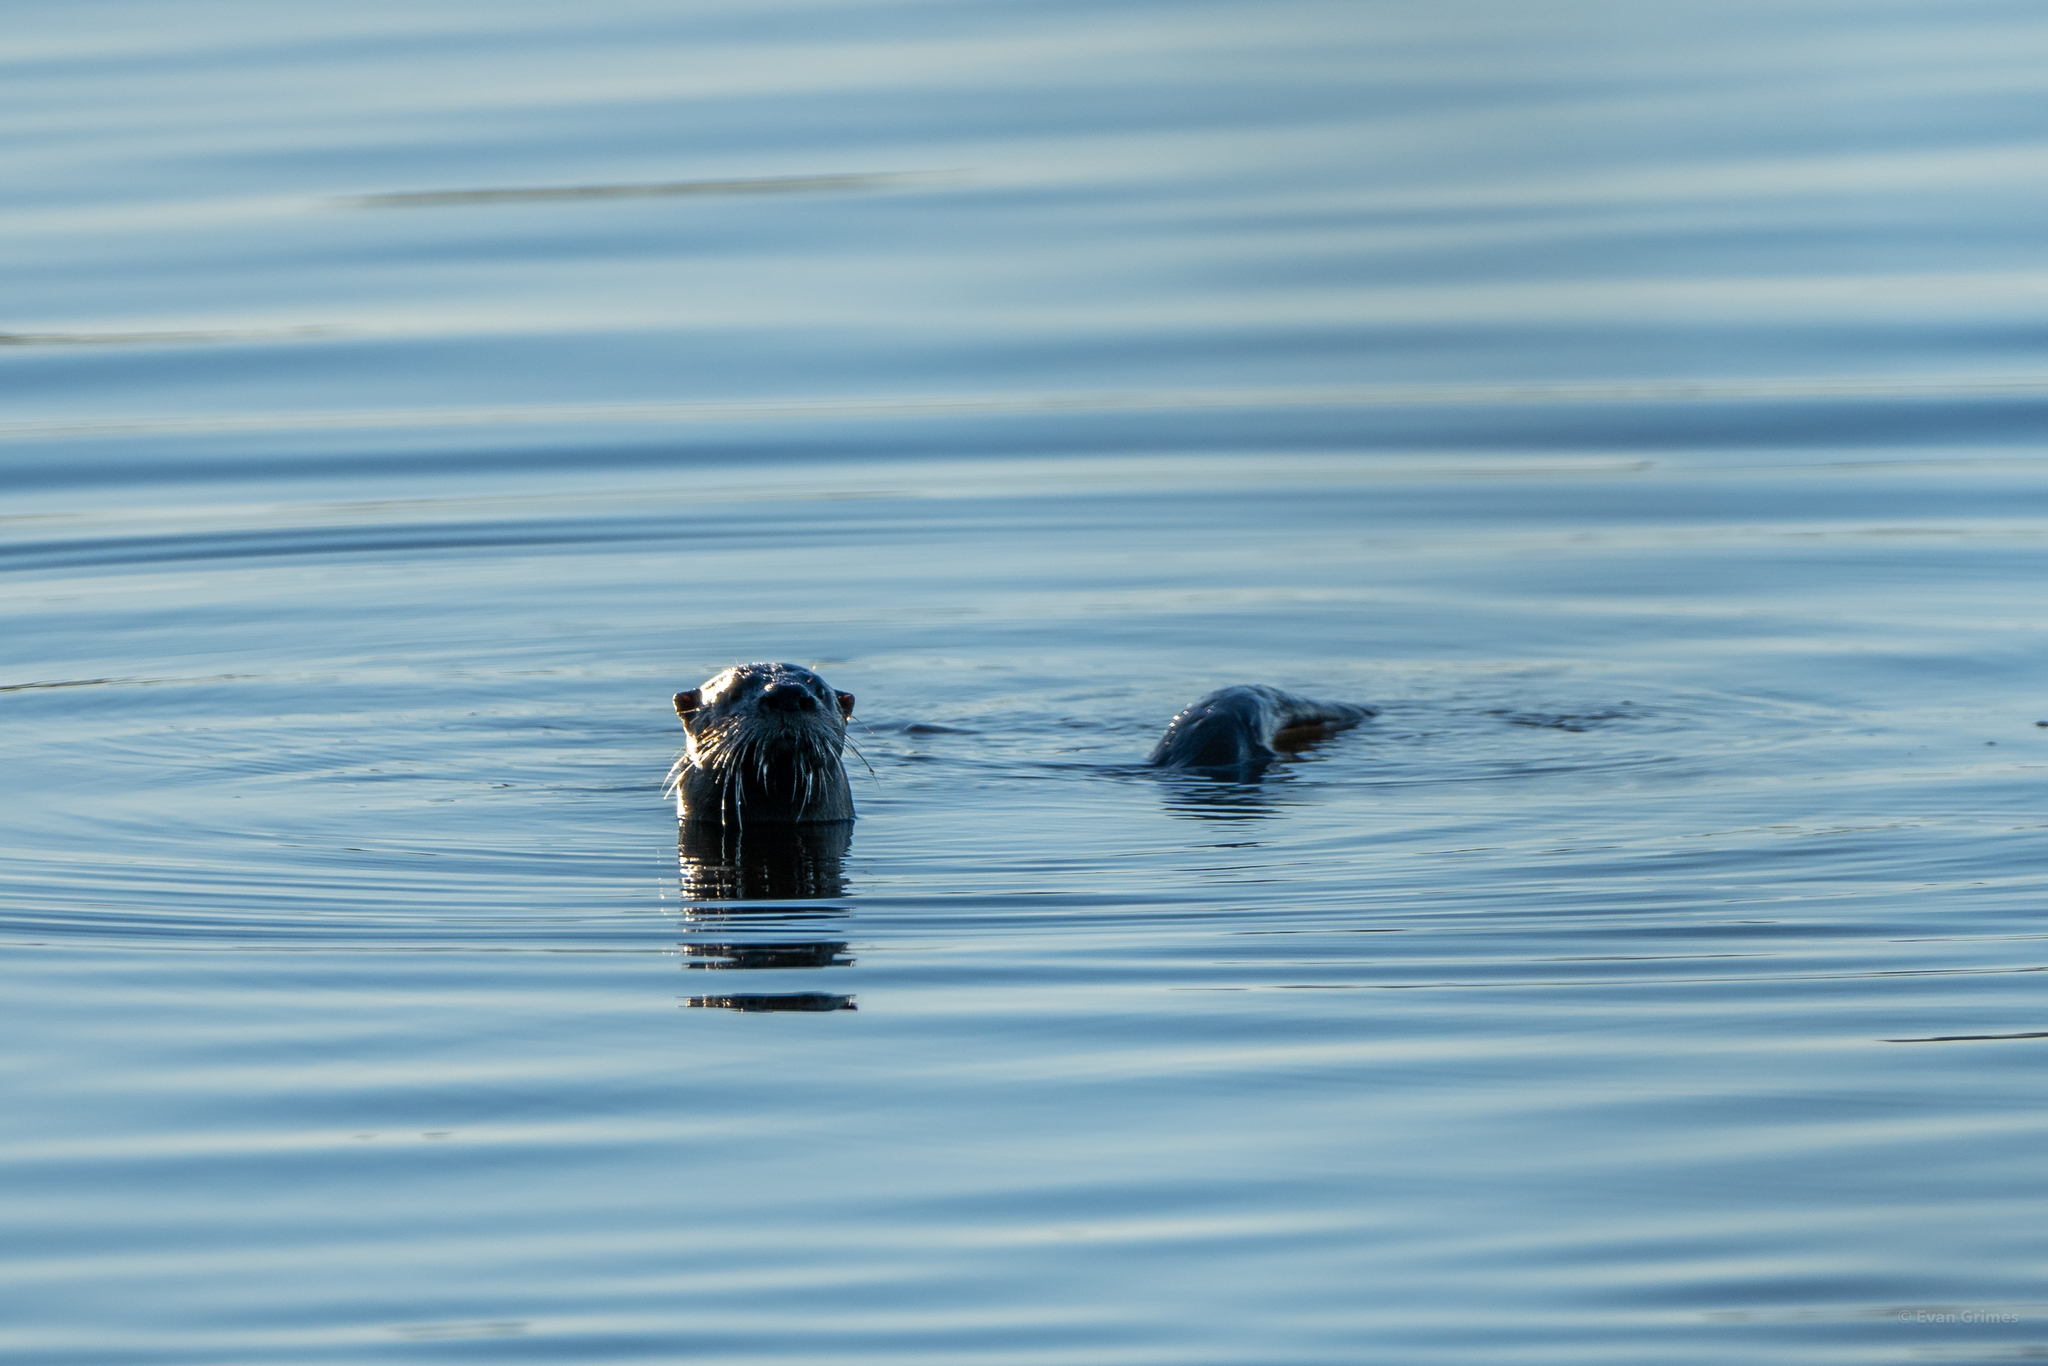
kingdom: Animalia
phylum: Chordata
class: Mammalia
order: Carnivora
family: Mustelidae
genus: Lontra
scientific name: Lontra canadensis
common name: North american river otter
